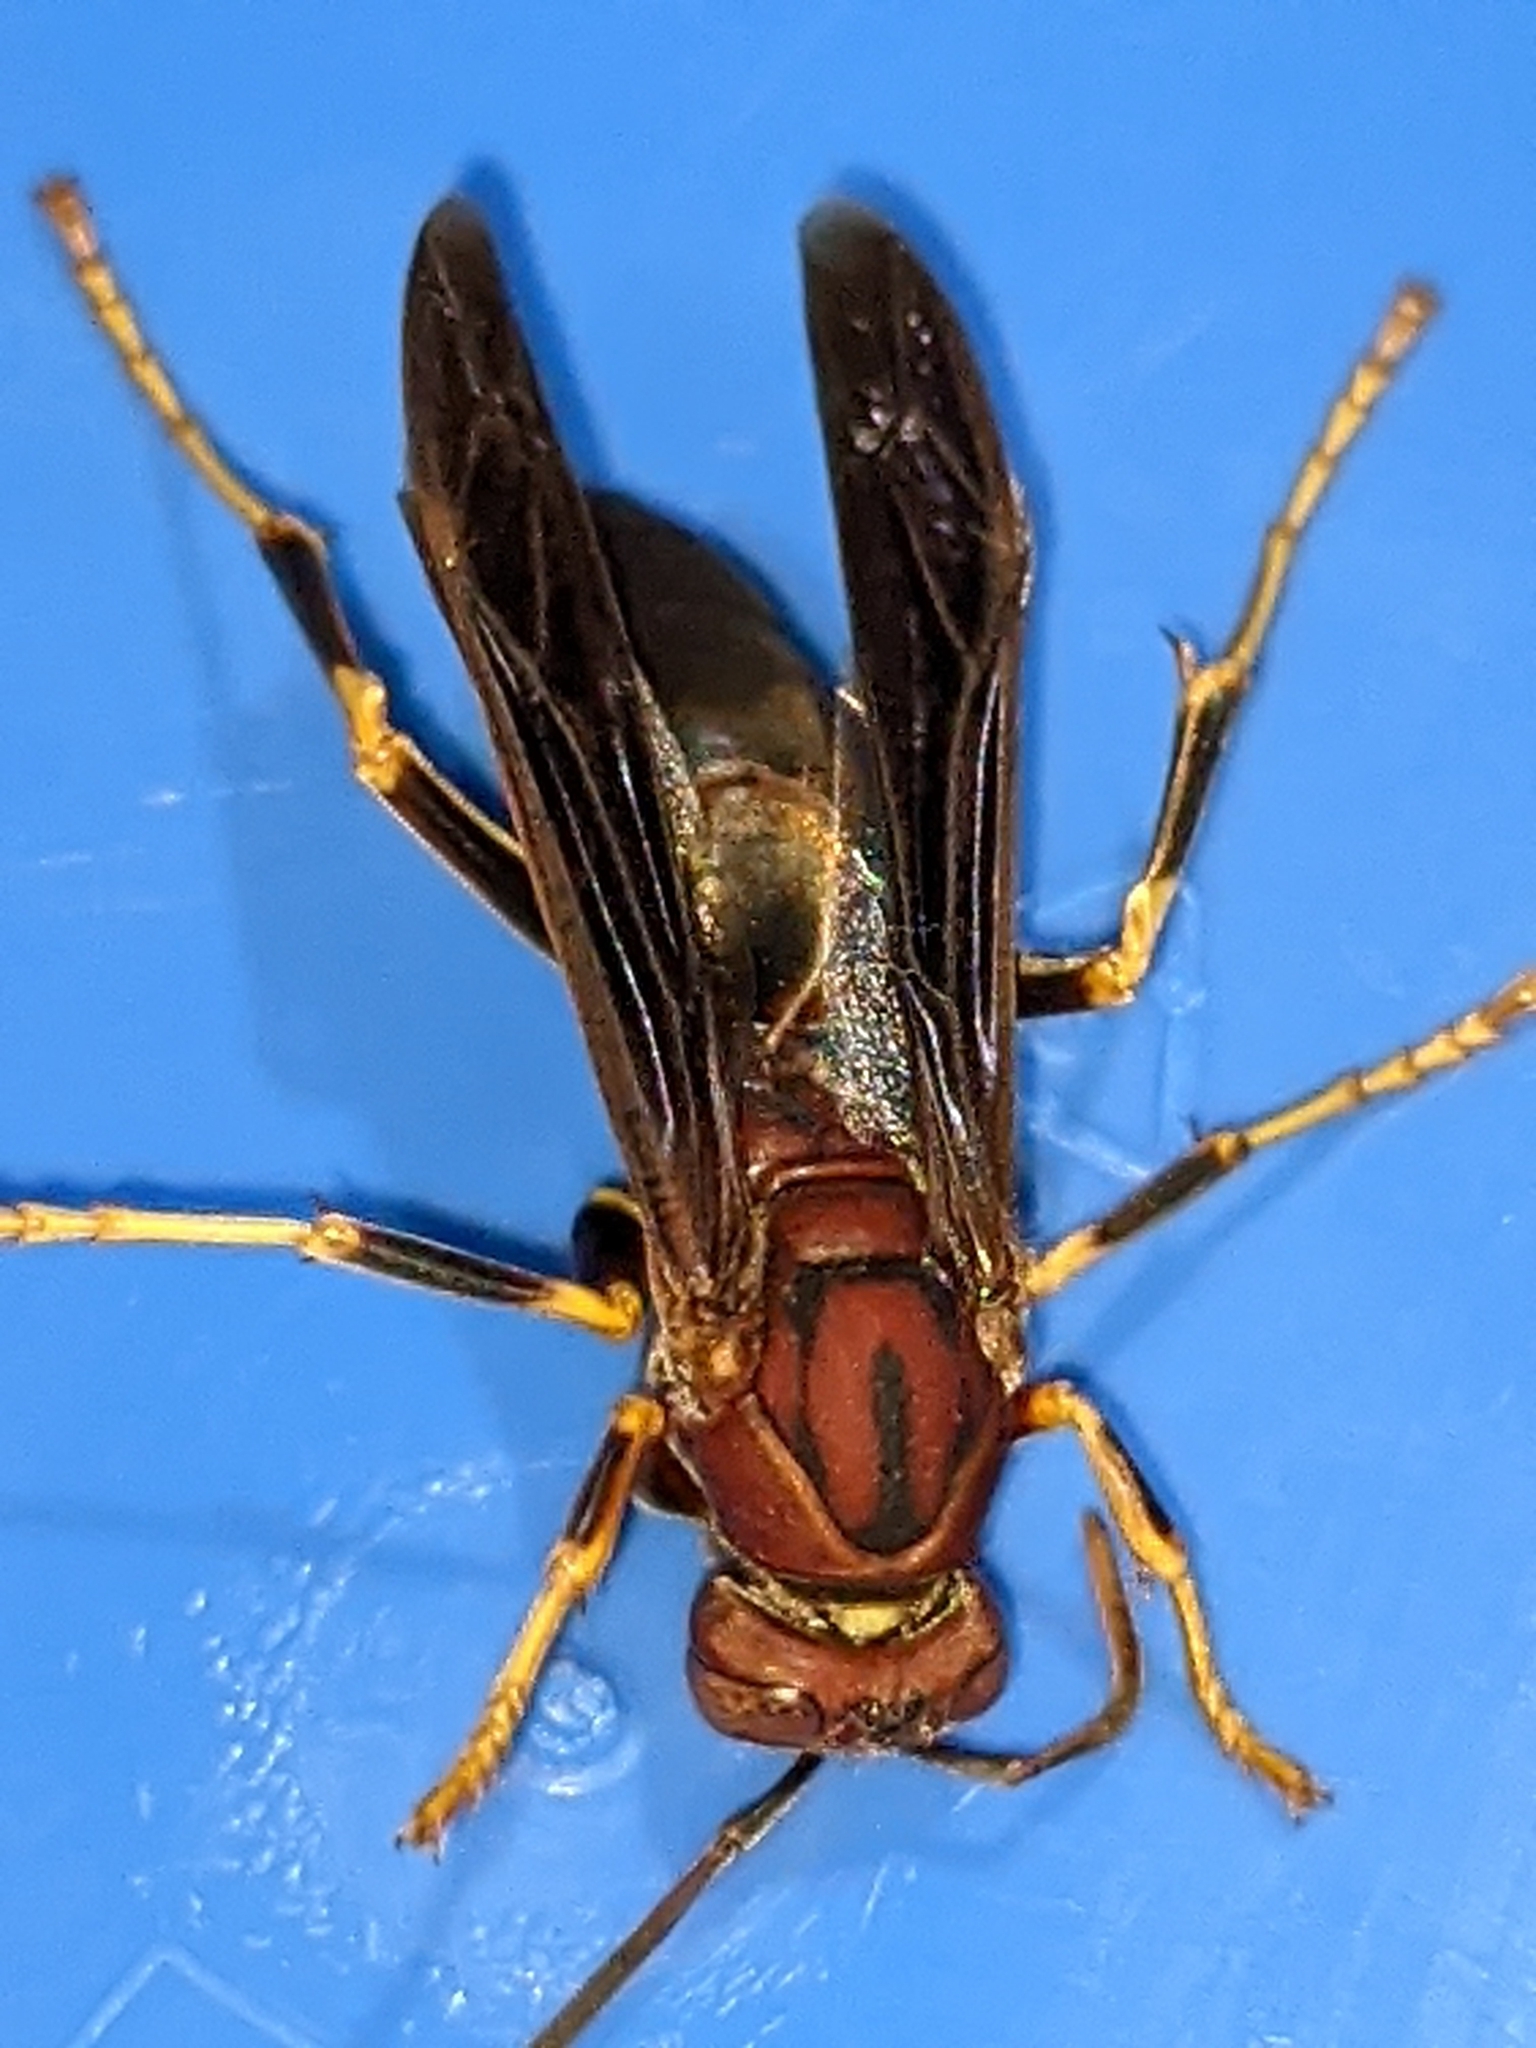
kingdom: Animalia
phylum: Arthropoda
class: Insecta
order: Hymenoptera
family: Eumenidae
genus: Polistes
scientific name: Polistes metricus
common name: Metric paper wasp
